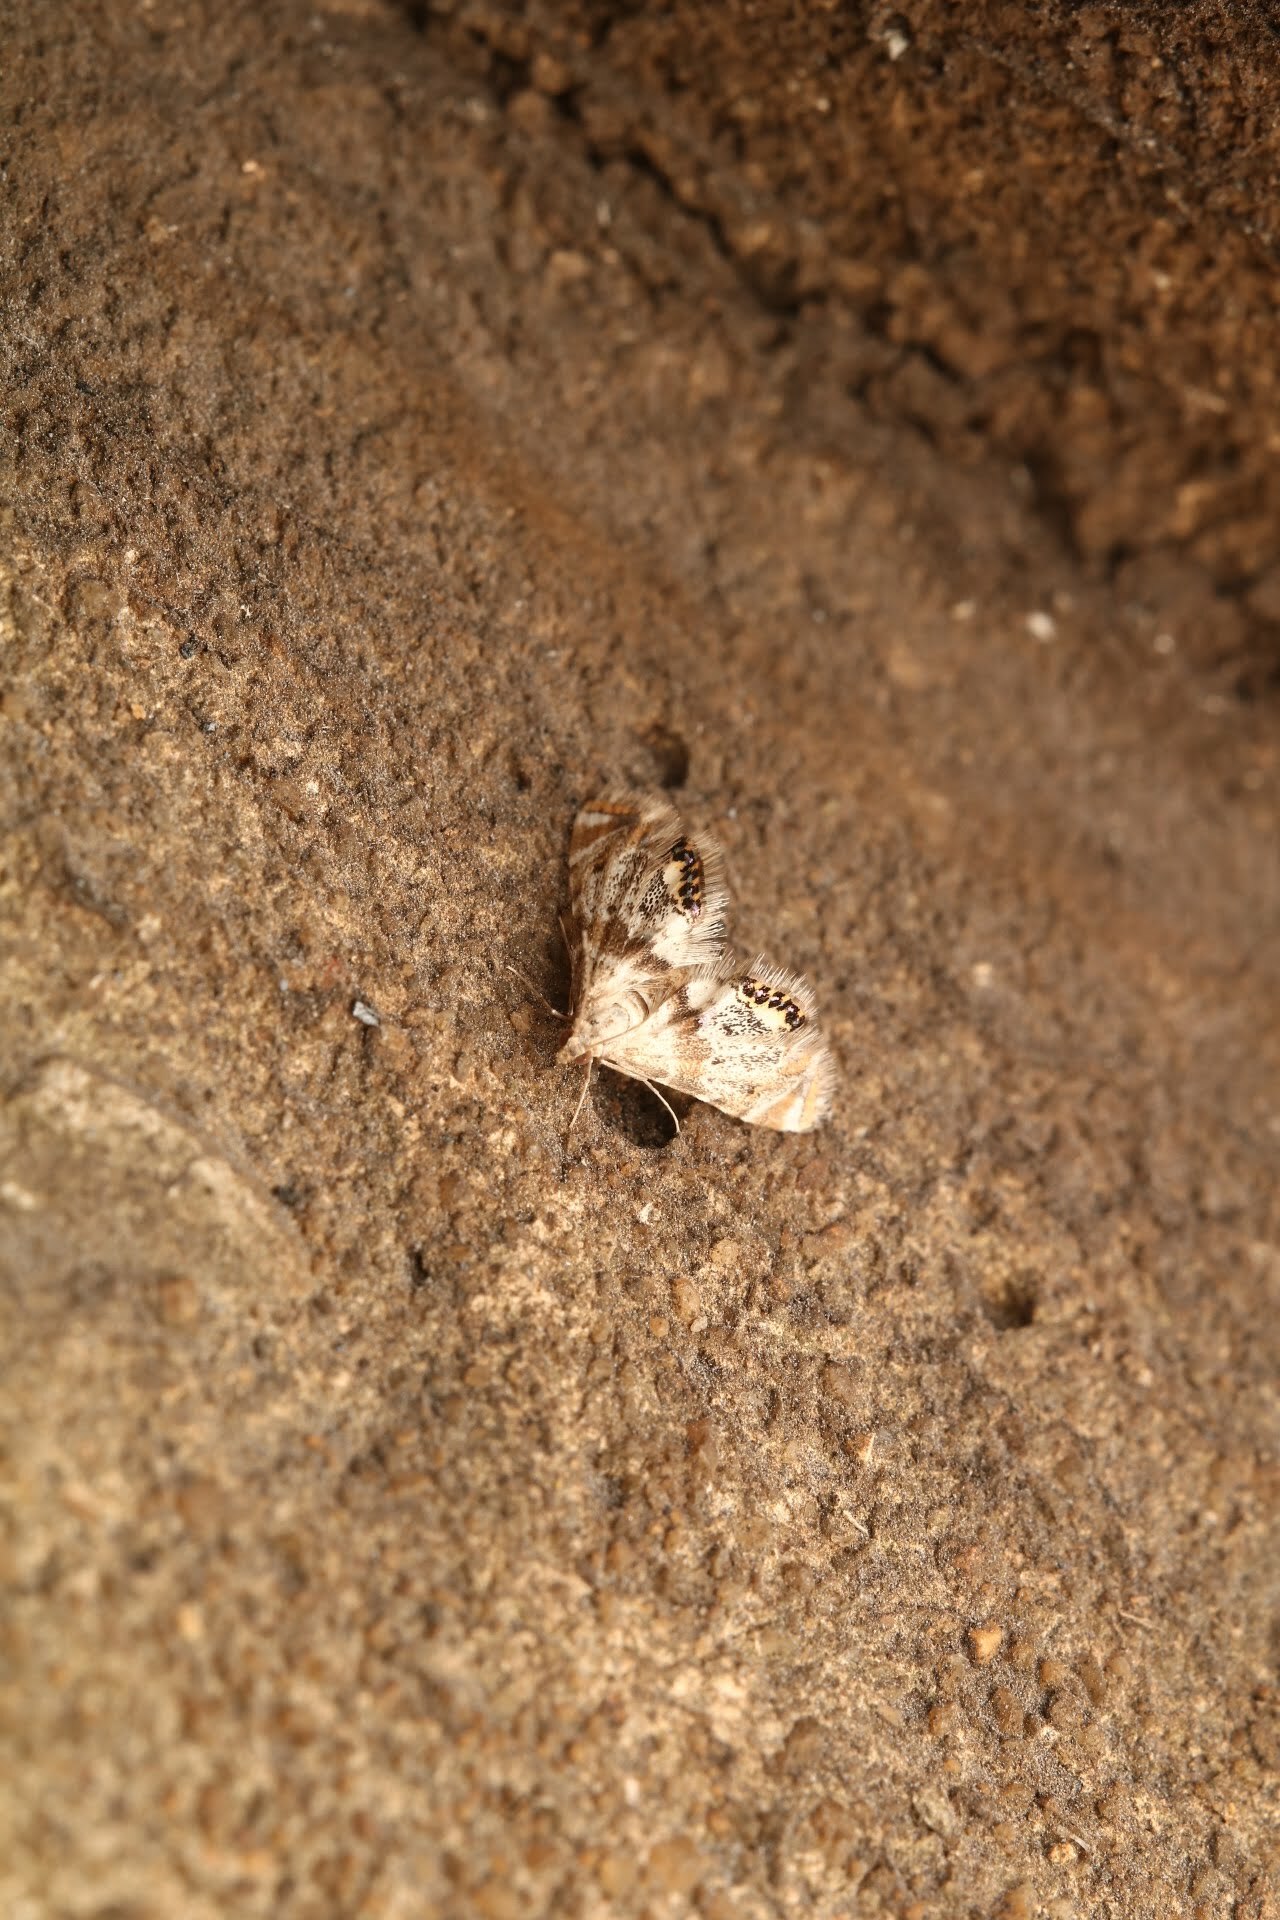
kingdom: Animalia
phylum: Arthropoda
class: Insecta
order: Lepidoptera
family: Crambidae
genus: Petrophila
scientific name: Petrophila fulicalis
